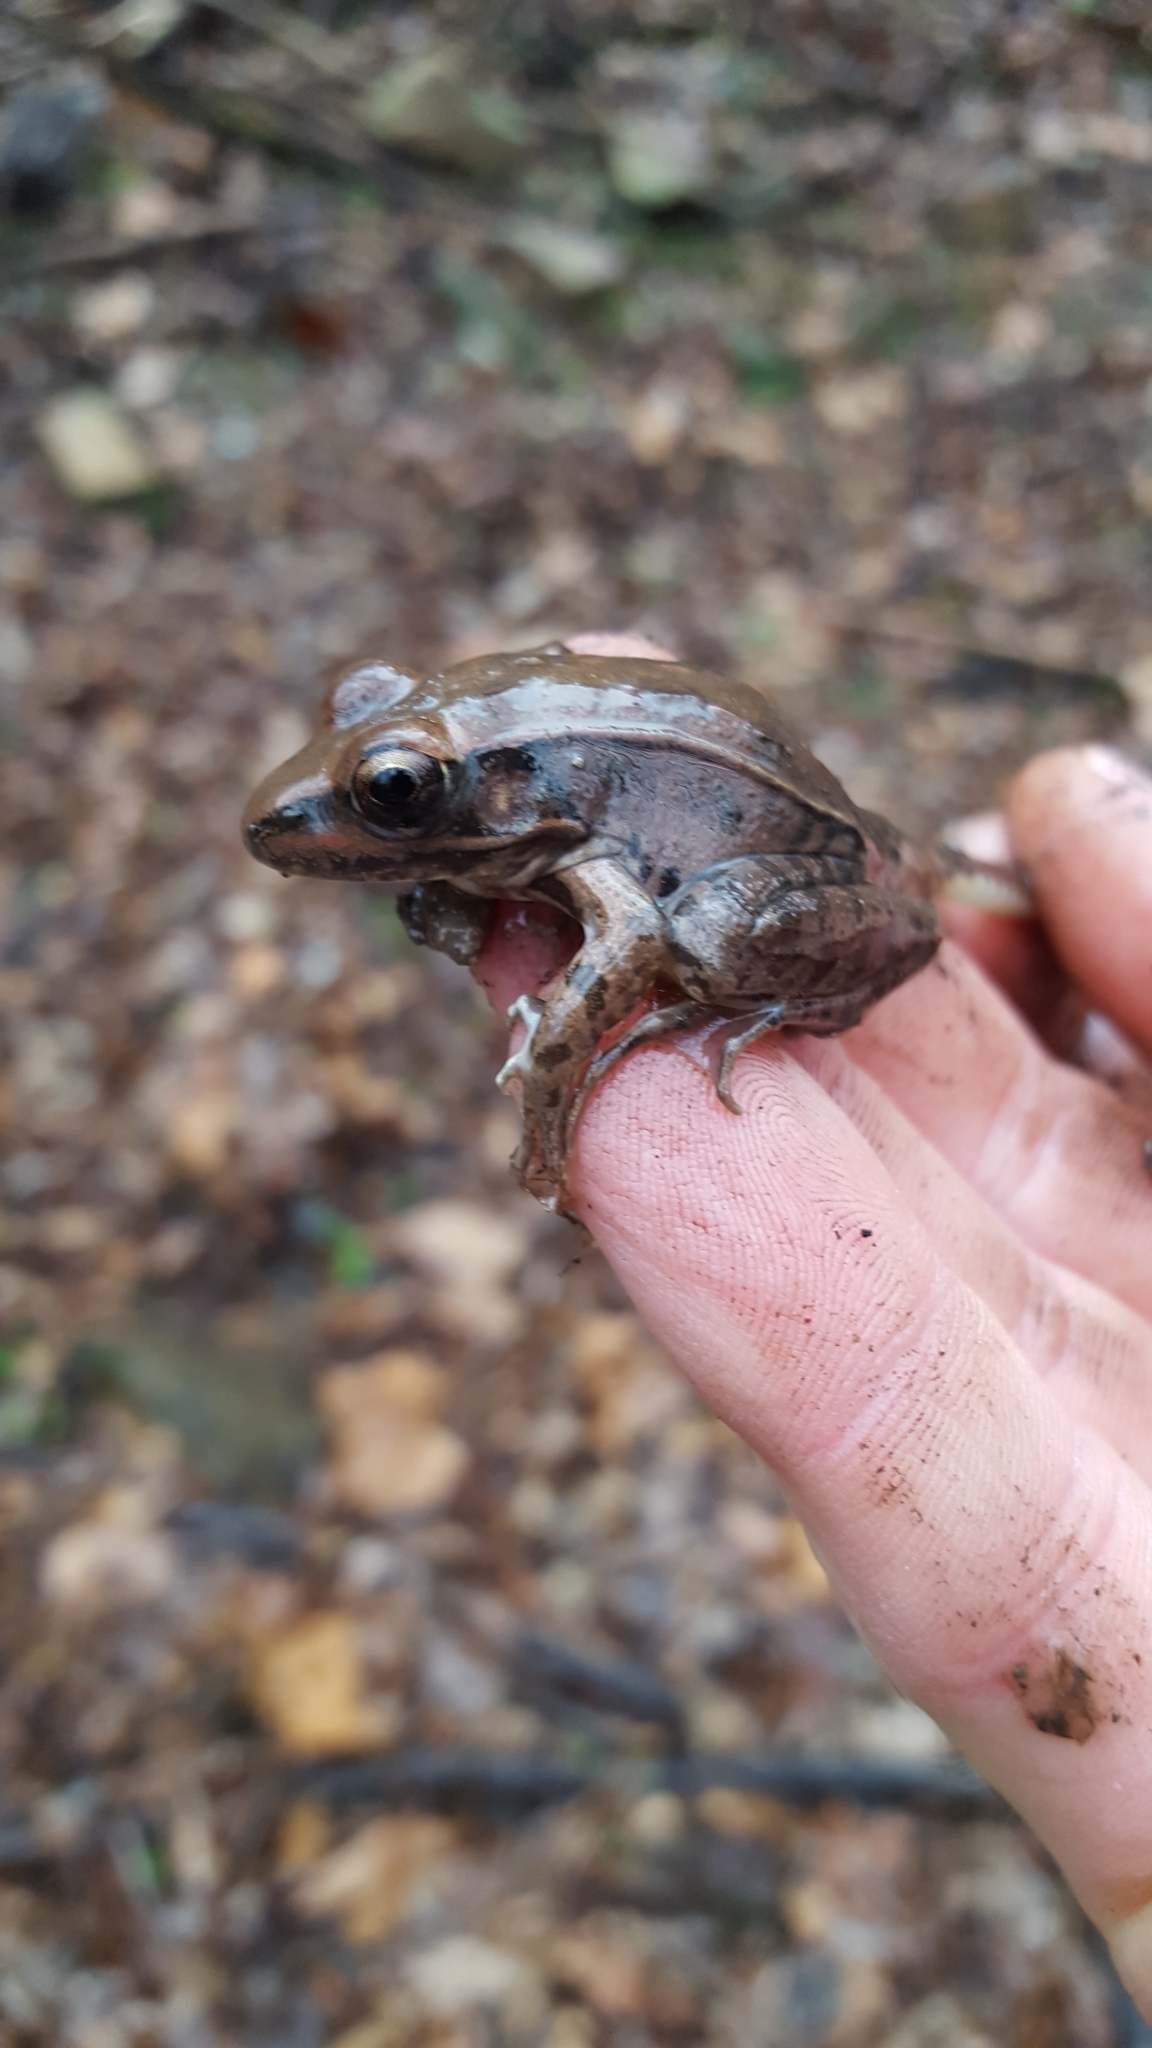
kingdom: Animalia
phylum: Chordata
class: Amphibia
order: Anura
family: Ranidae
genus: Lithobates
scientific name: Lithobates sphenocephalus
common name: Southern leopard frog
